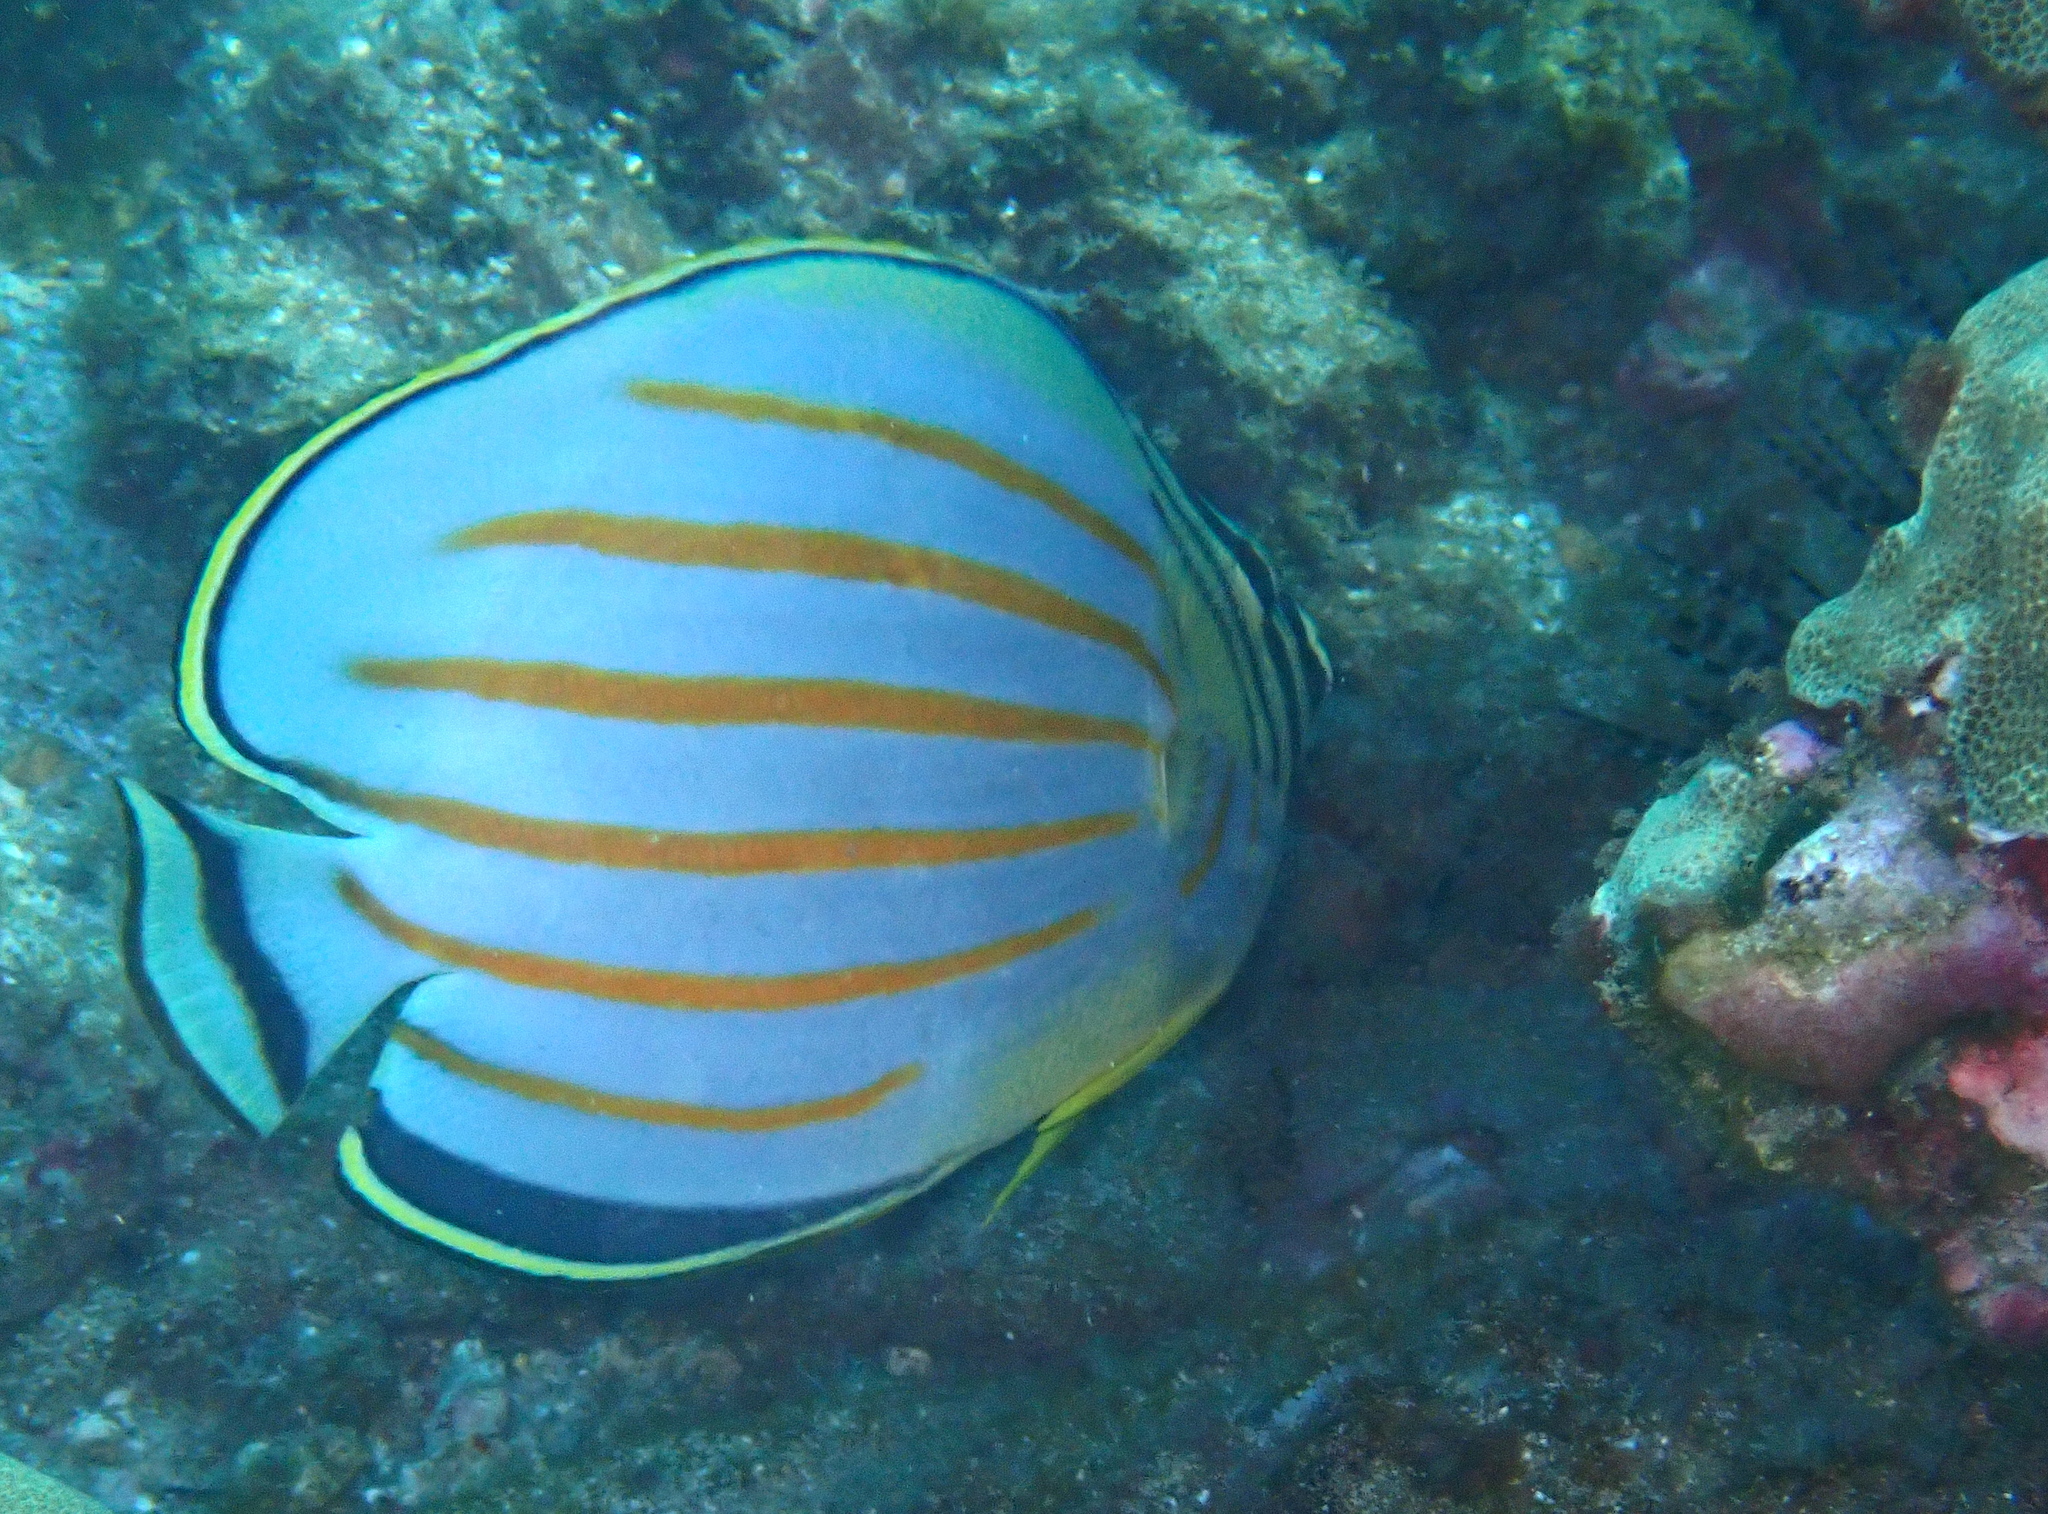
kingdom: Animalia
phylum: Chordata
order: Perciformes
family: Chaetodontidae
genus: Chaetodon
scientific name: Chaetodon ornatissimus
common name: Ornate butterflyfish
